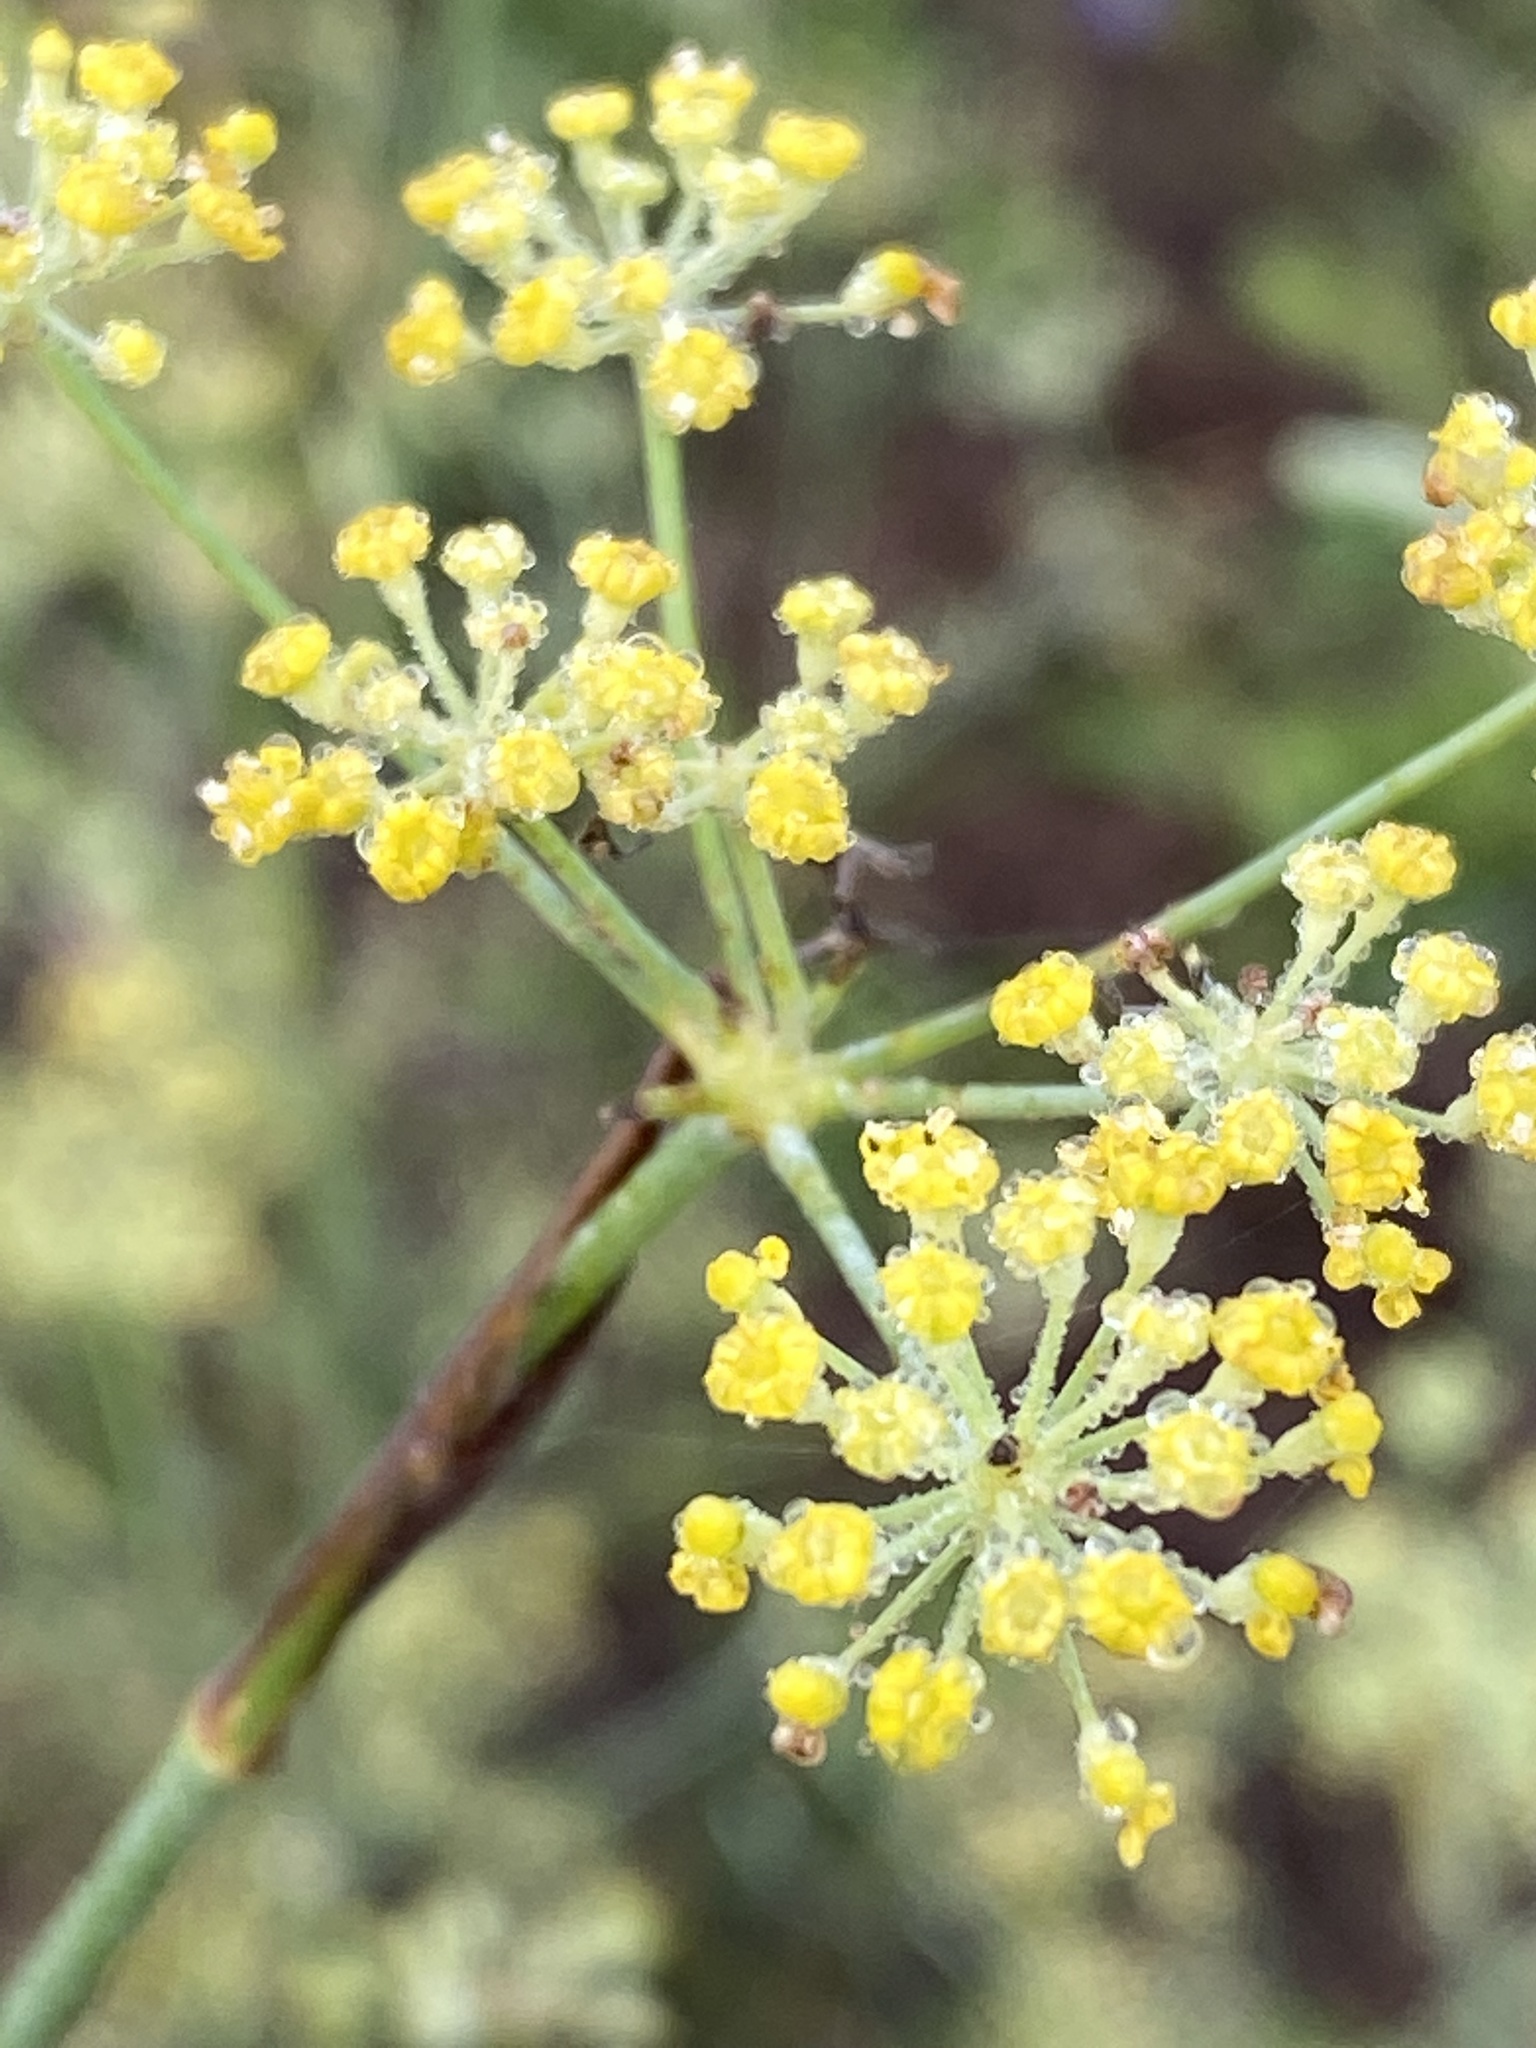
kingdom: Plantae
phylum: Tracheophyta
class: Magnoliopsida
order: Apiales
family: Apiaceae
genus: Foeniculum
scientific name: Foeniculum vulgare
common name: Fennel
